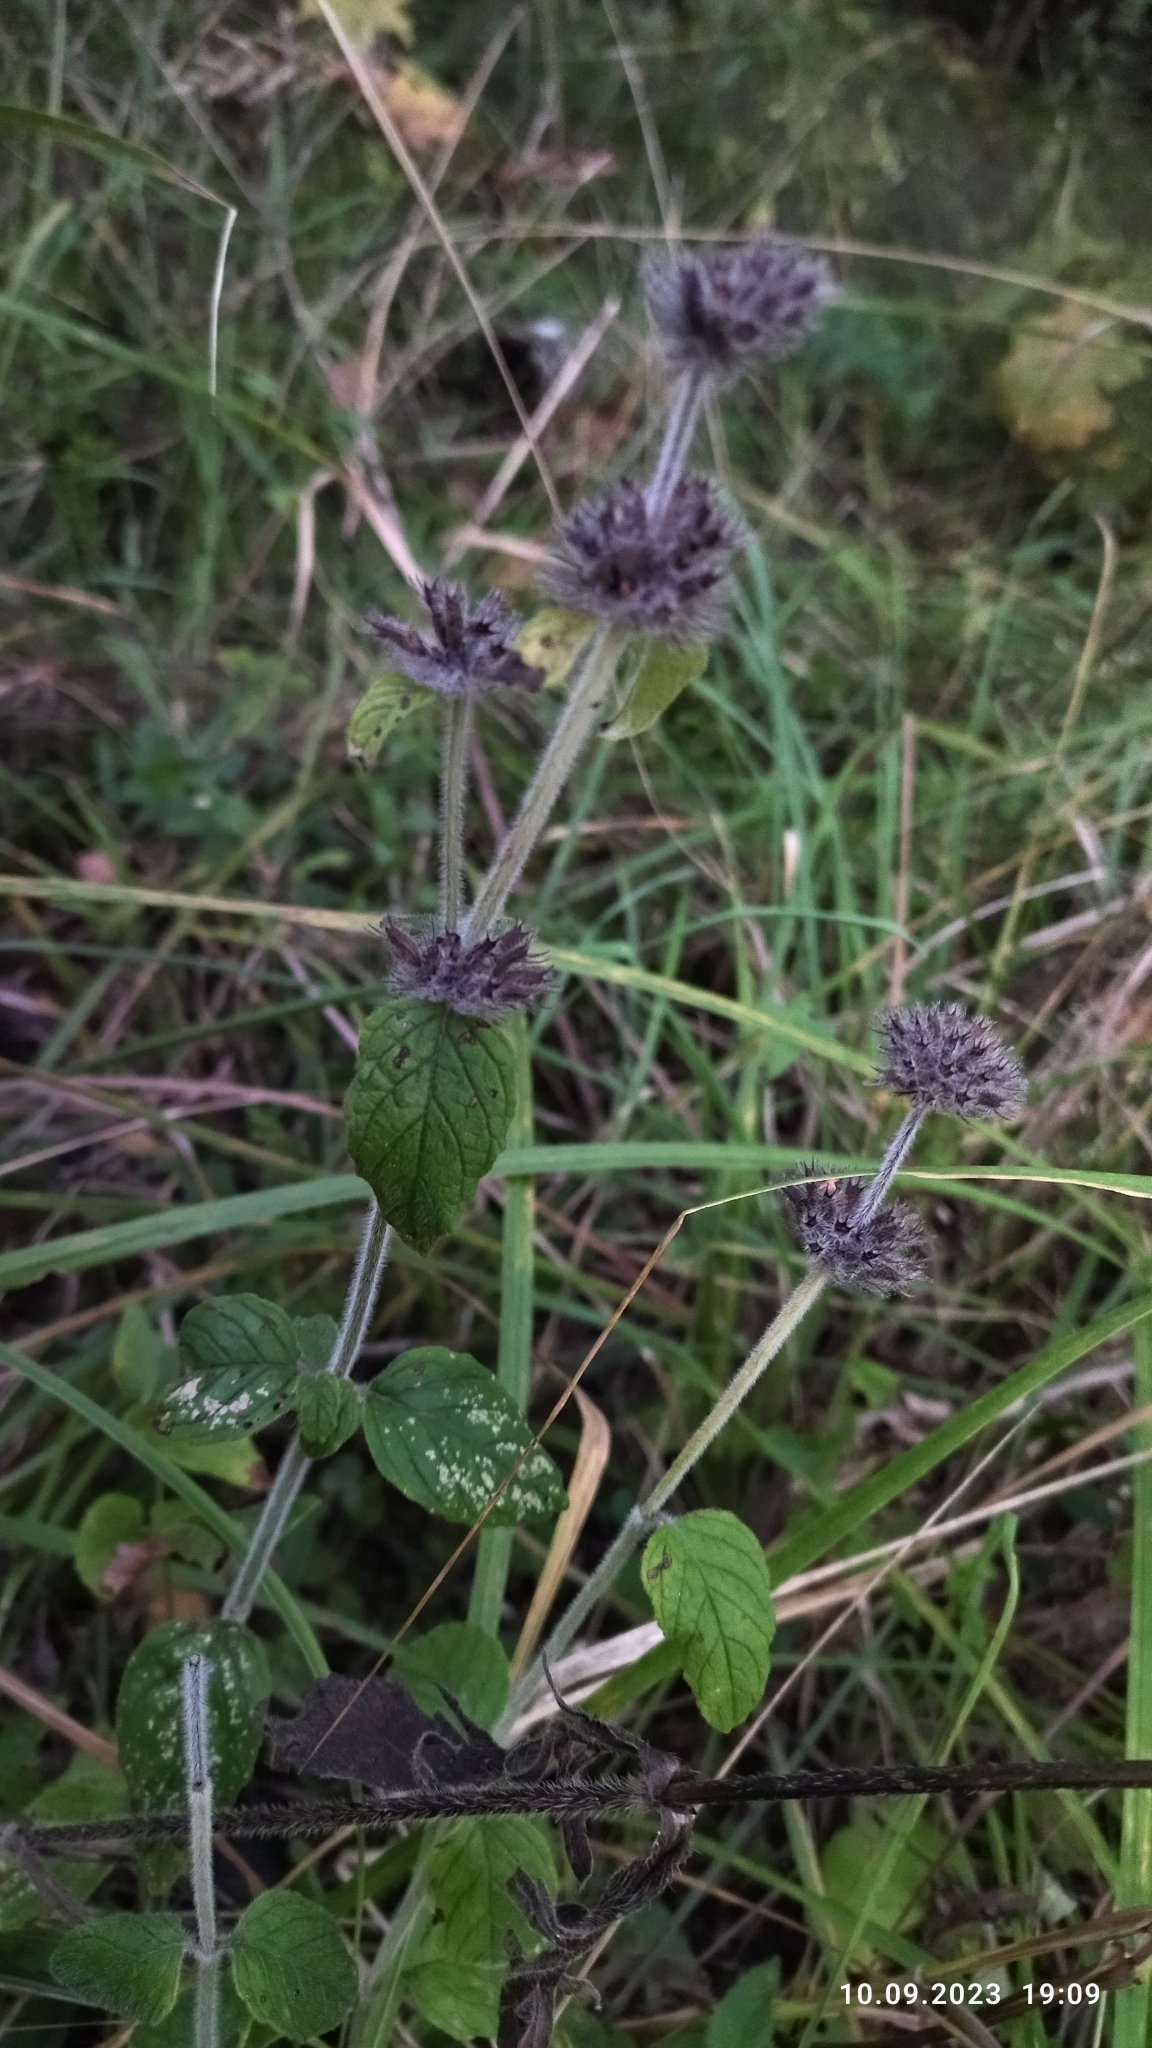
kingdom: Plantae
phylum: Tracheophyta
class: Magnoliopsida
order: Lamiales
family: Lamiaceae
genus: Clinopodium
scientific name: Clinopodium vulgare
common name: Wild basil
